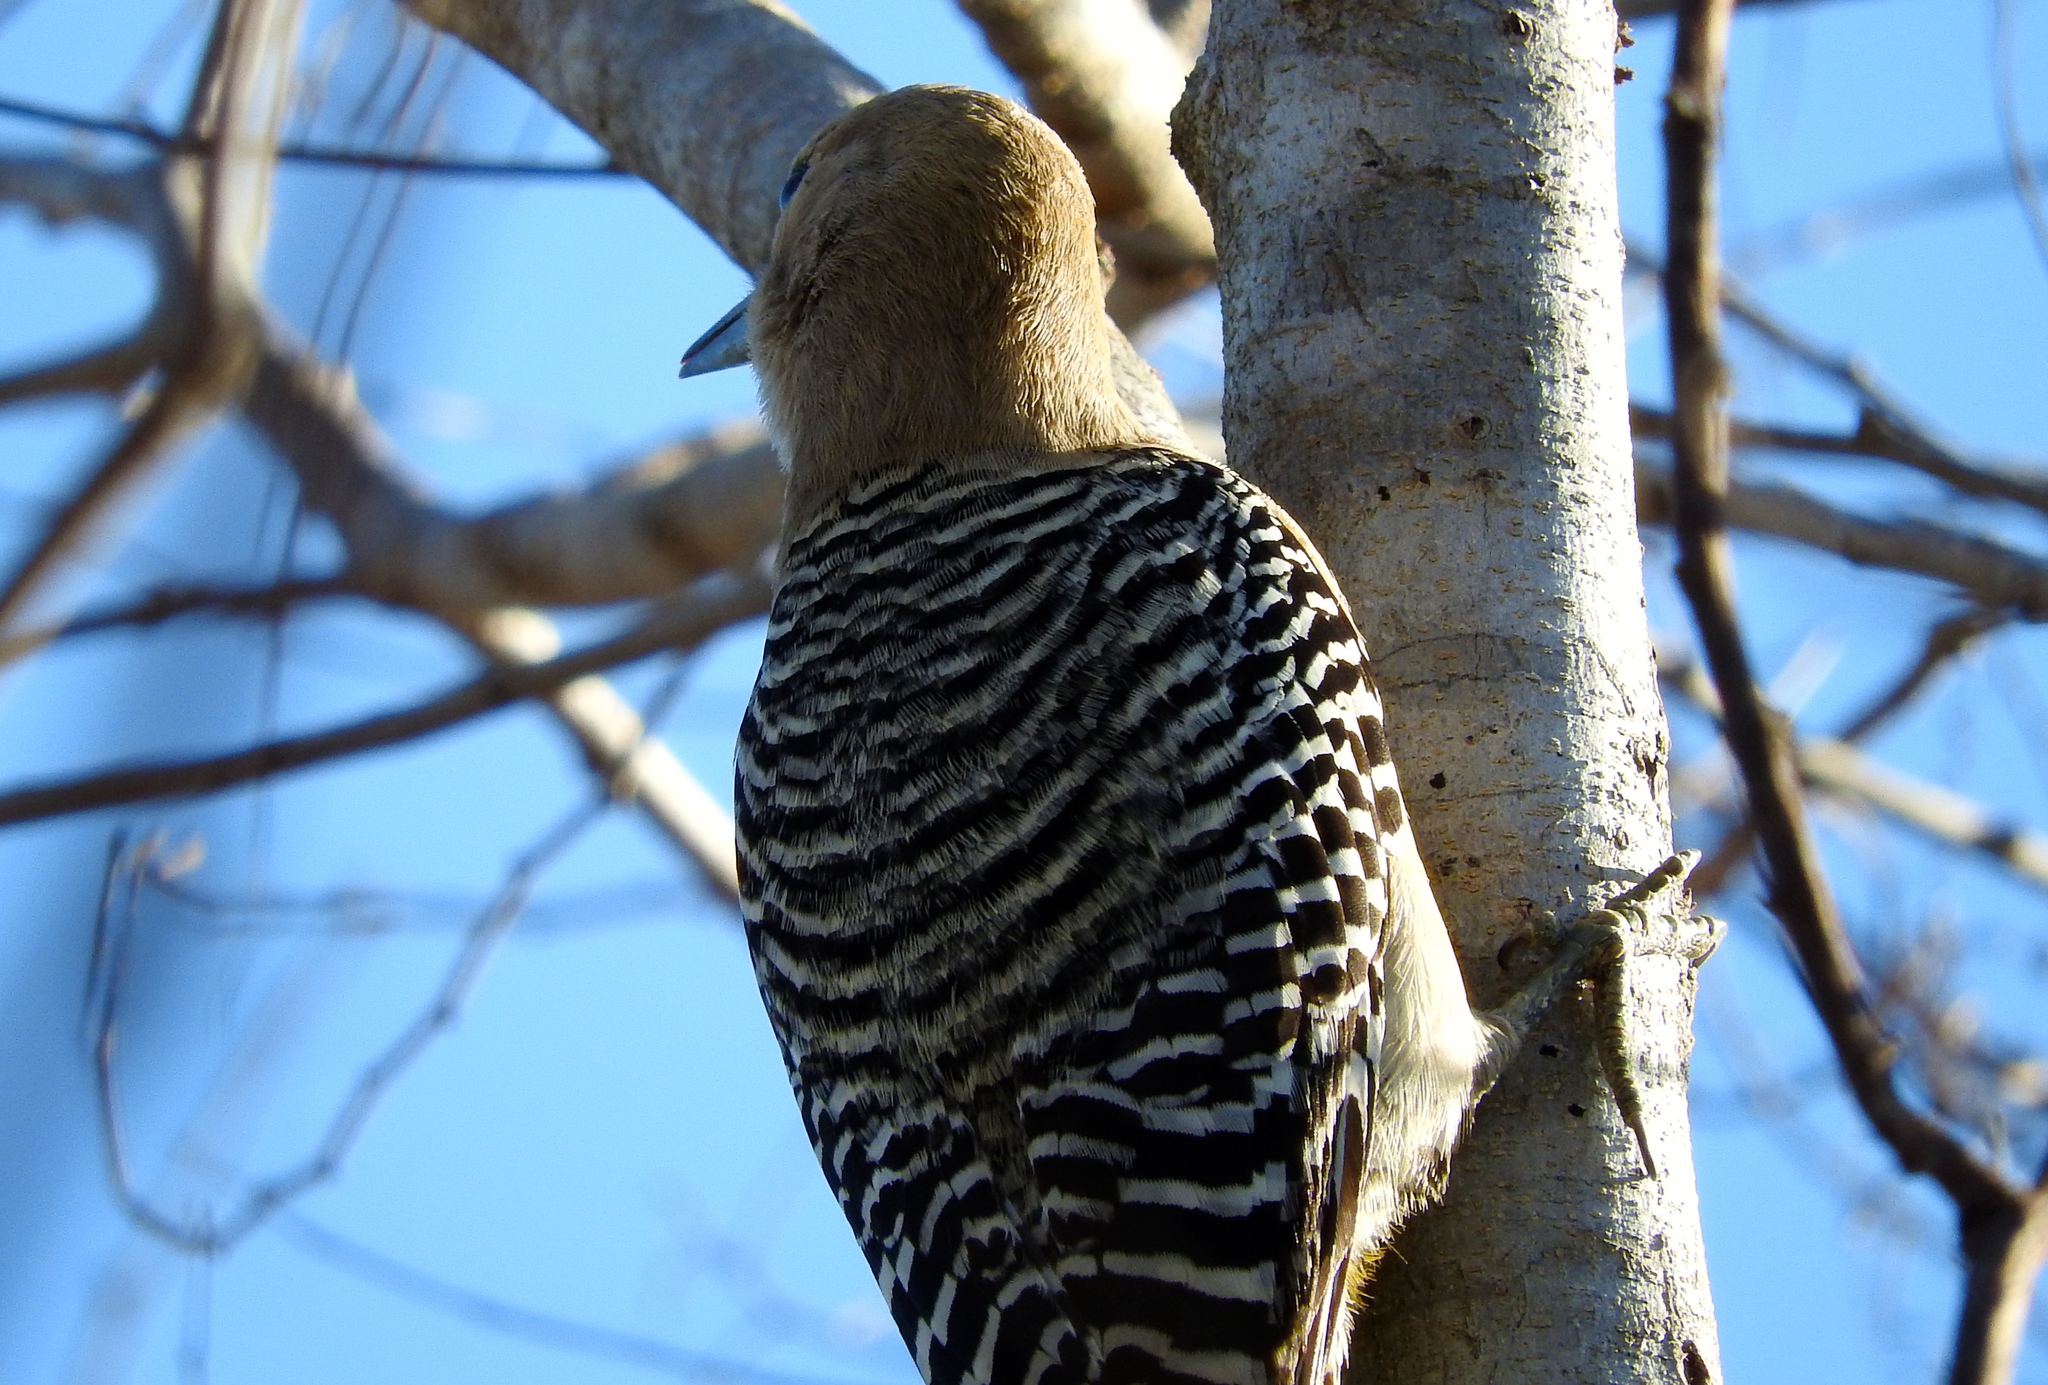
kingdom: Animalia
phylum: Chordata
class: Aves
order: Piciformes
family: Picidae
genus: Melanerpes
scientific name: Melanerpes uropygialis
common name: Gila woodpecker
